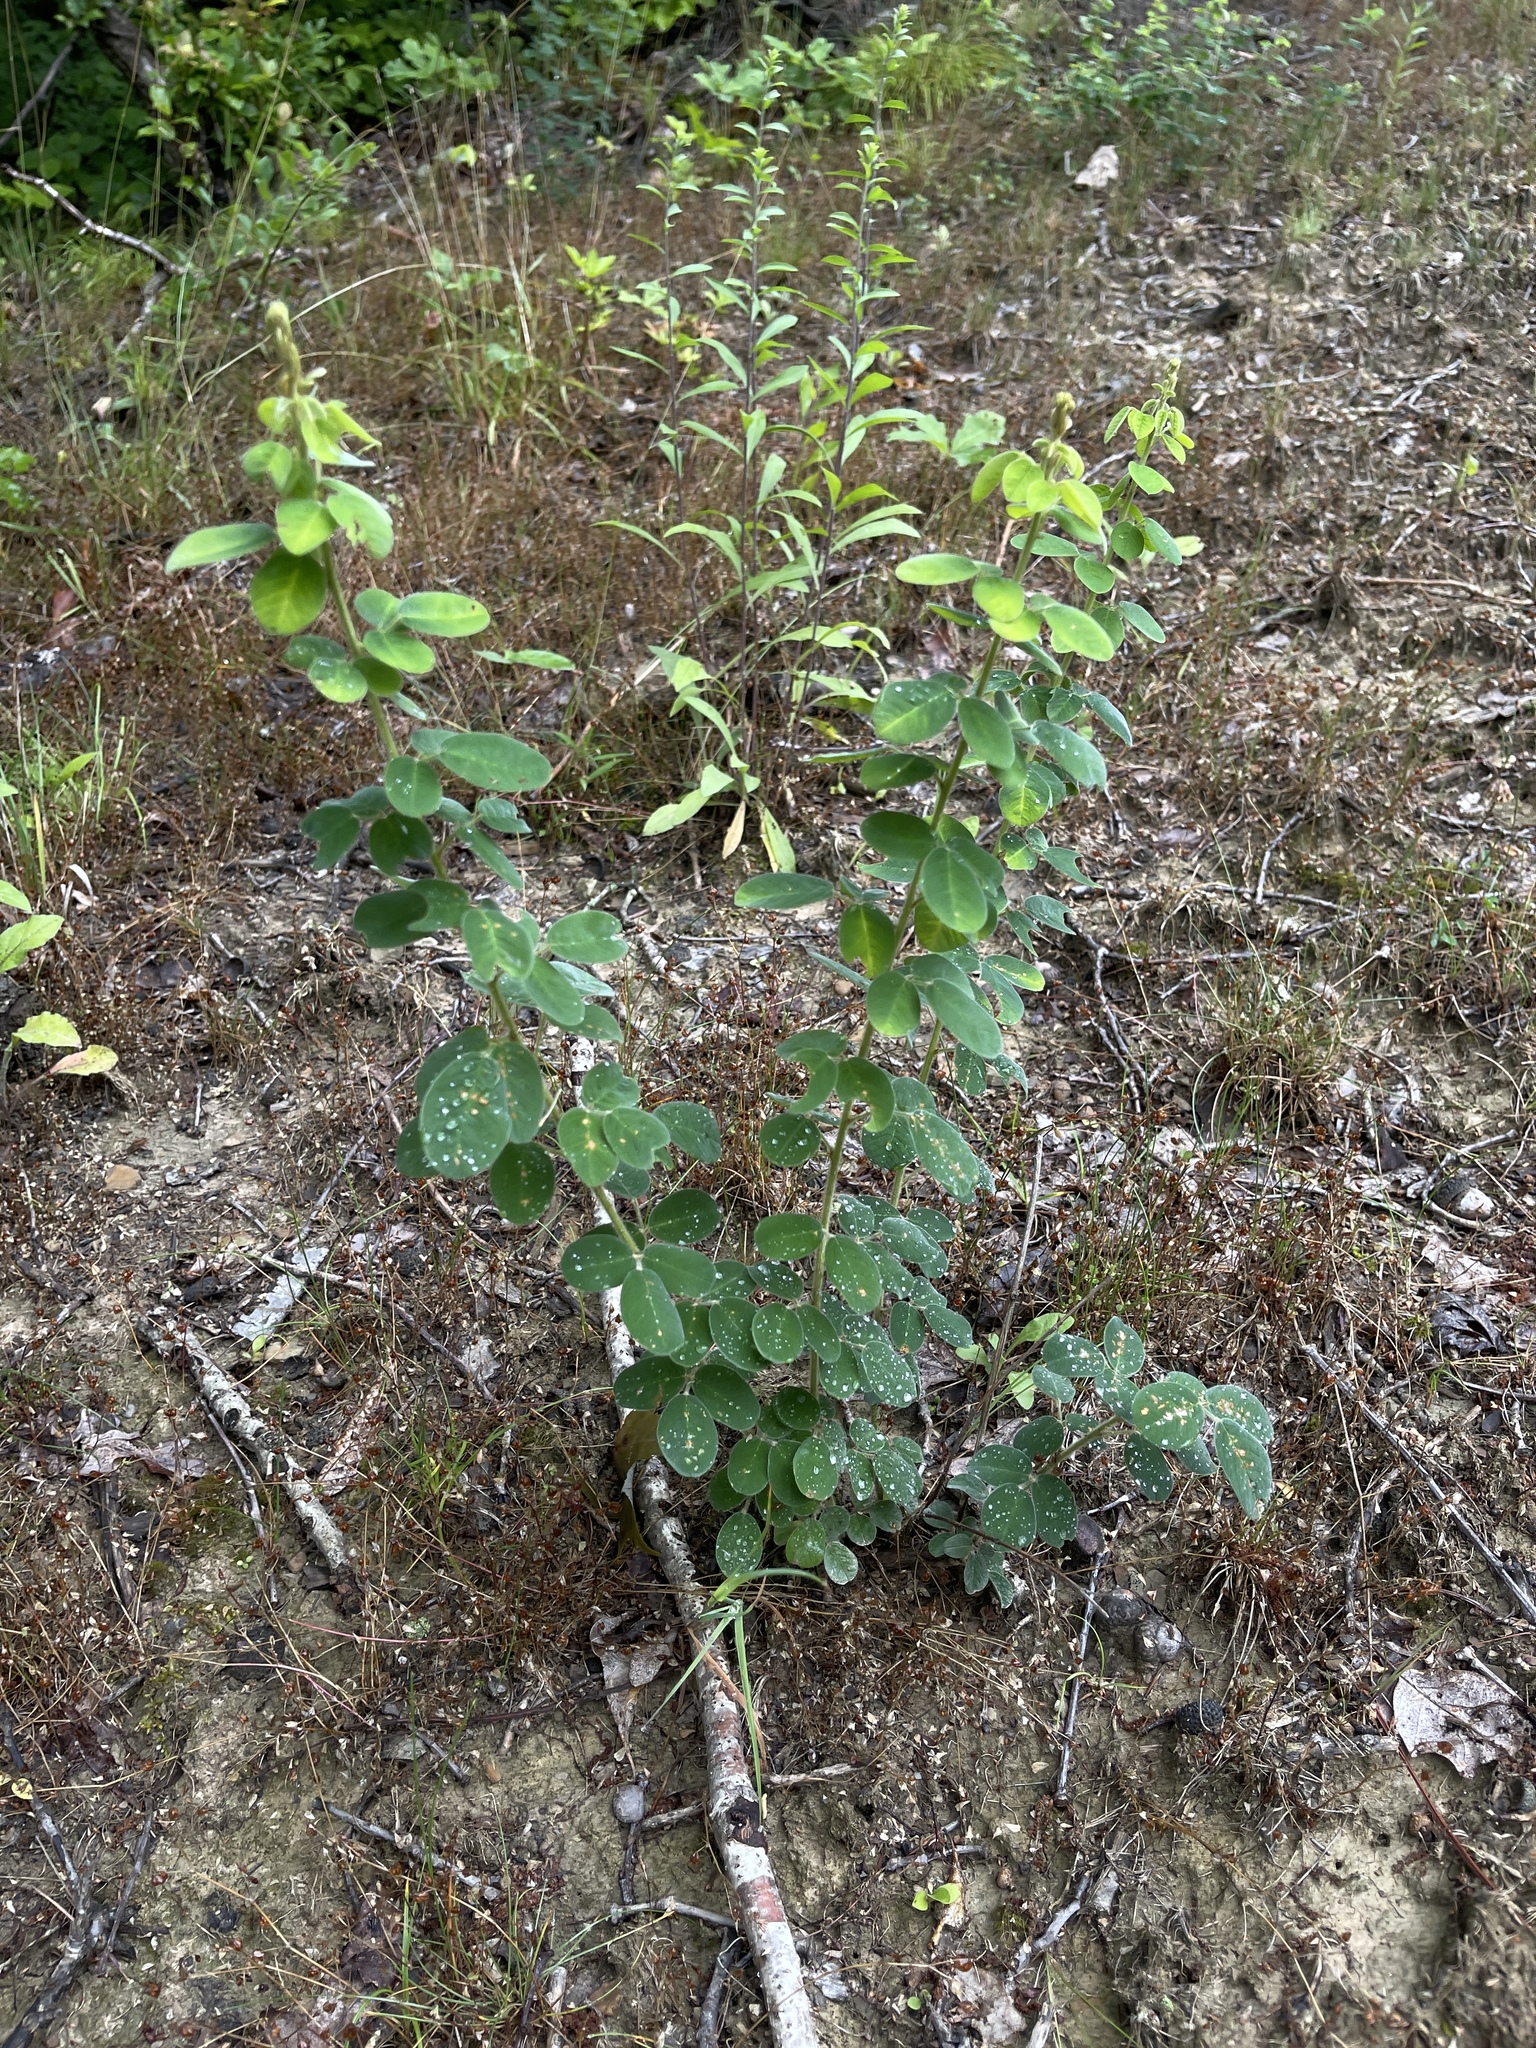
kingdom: Plantae
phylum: Tracheophyta
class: Magnoliopsida
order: Fabales
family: Fabaceae
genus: Lespedeza
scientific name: Lespedeza hirta
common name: Hairy lespedeza
